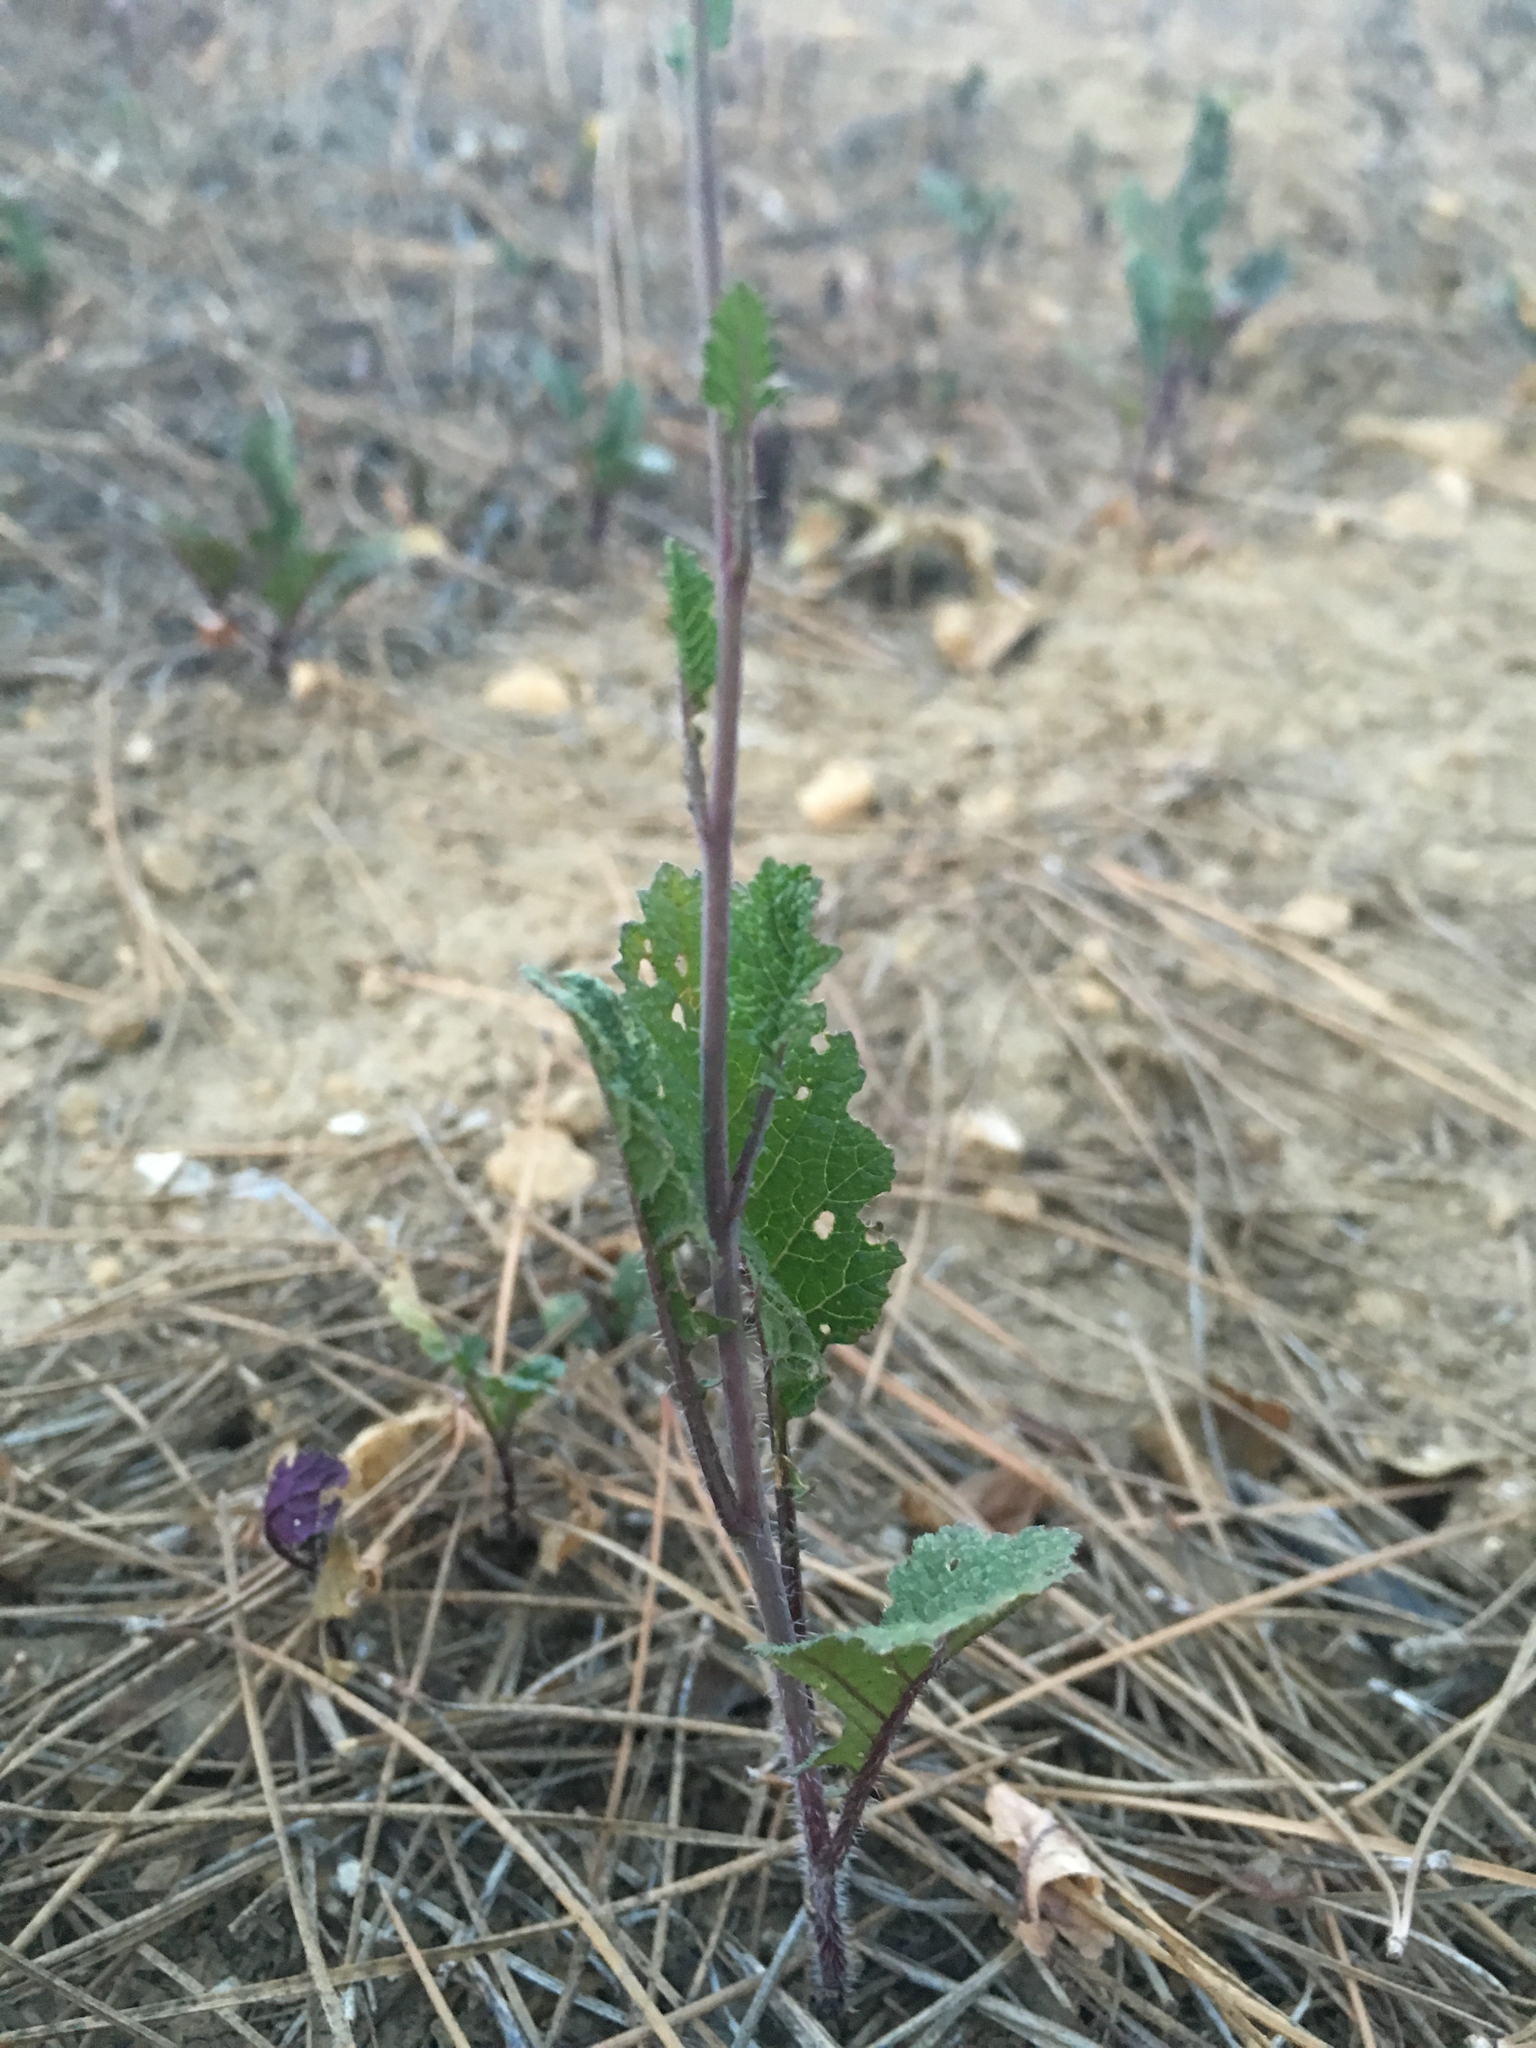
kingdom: Plantae
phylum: Tracheophyta
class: Magnoliopsida
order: Brassicales
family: Brassicaceae
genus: Brassica
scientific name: Brassica nigra
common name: Black mustard
